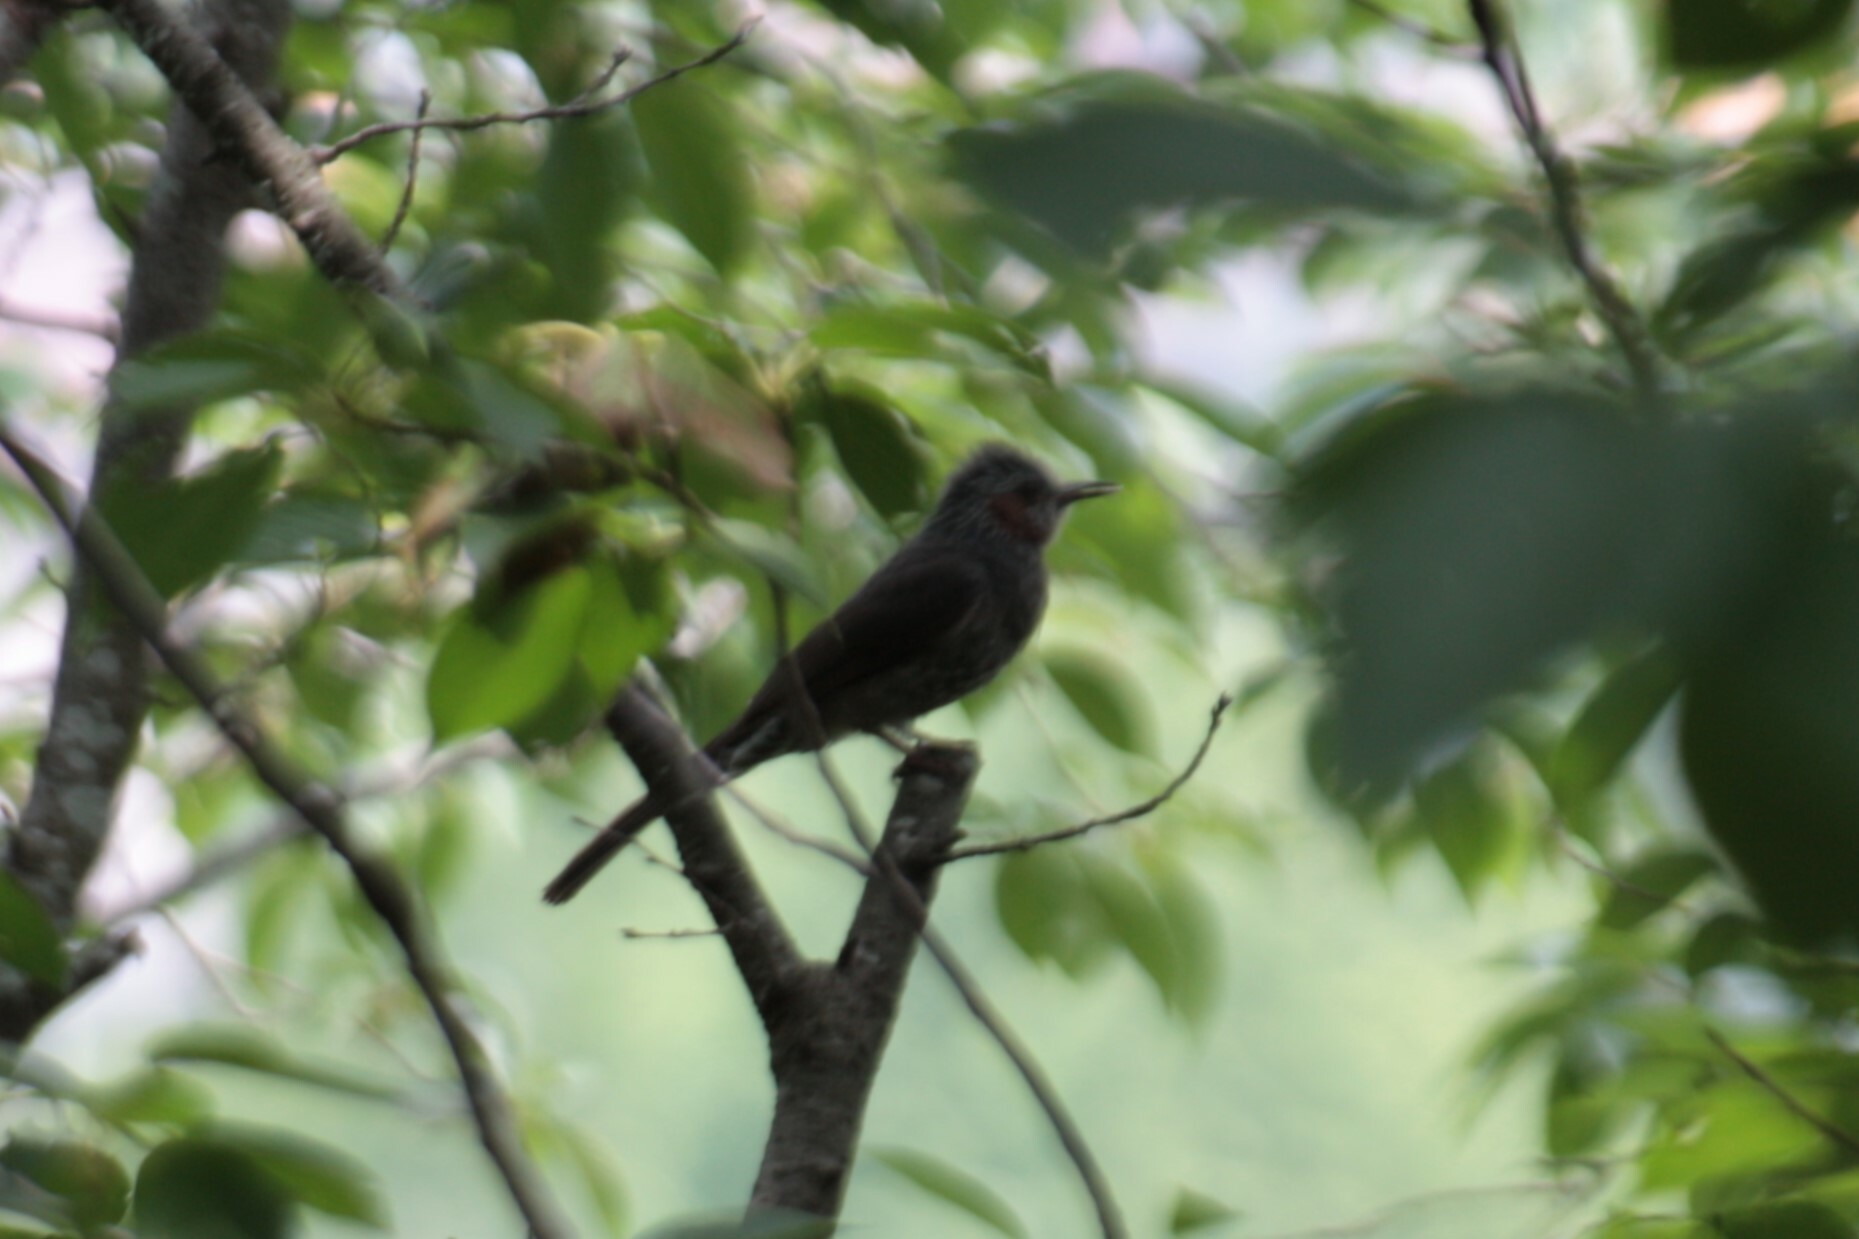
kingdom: Animalia
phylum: Chordata
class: Aves
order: Passeriformes
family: Pycnonotidae
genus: Hypsipetes
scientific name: Hypsipetes amaurotis
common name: Brown-eared bulbul
